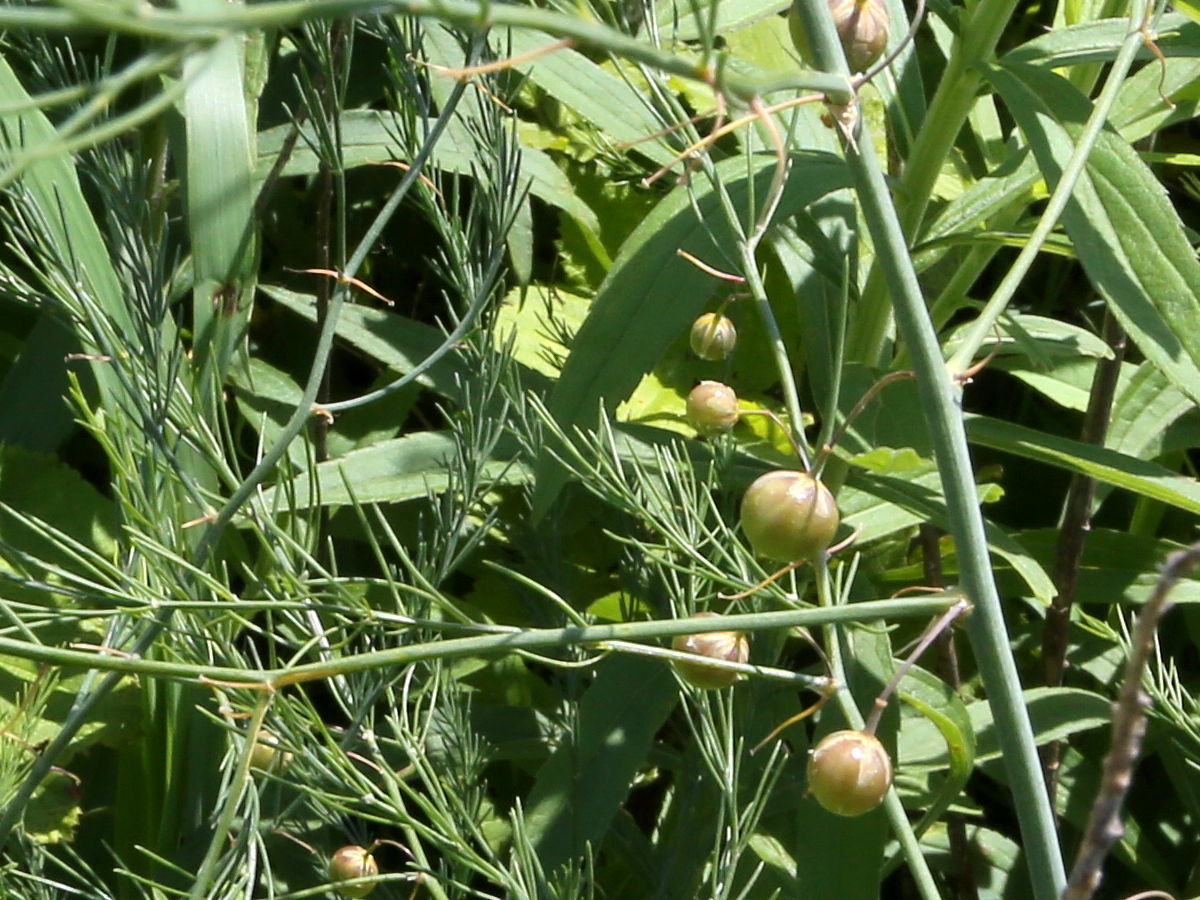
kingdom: Plantae
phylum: Tracheophyta
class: Liliopsida
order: Asparagales
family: Asparagaceae
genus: Asparagus
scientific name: Asparagus officinalis
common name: Garden asparagus
